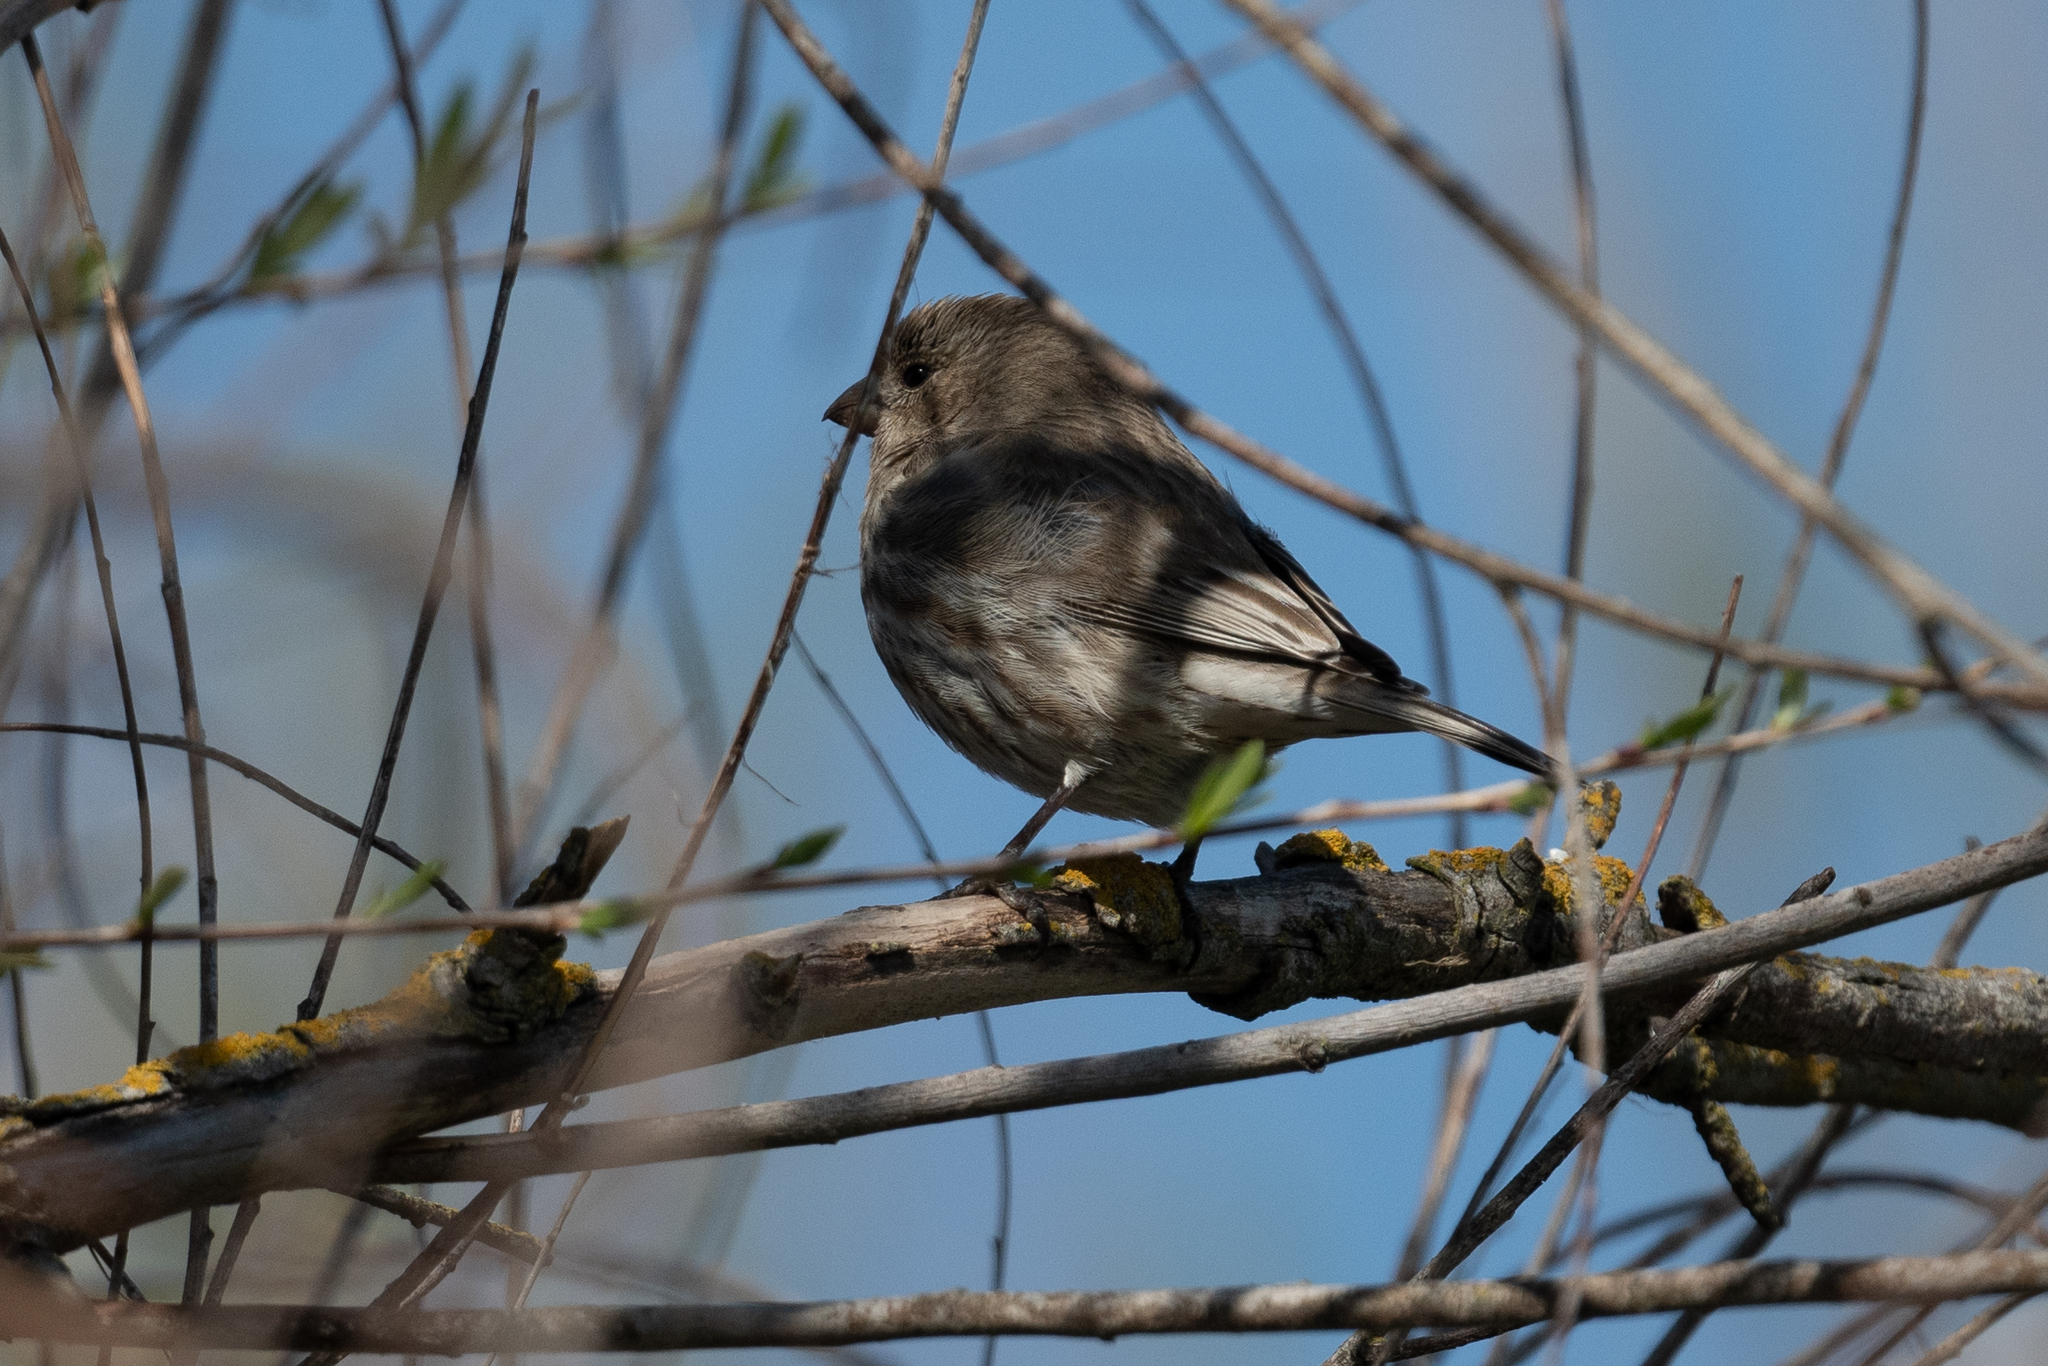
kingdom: Animalia
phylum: Chordata
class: Aves
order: Passeriformes
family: Fringillidae
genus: Haemorhous
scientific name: Haemorhous mexicanus
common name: House finch
